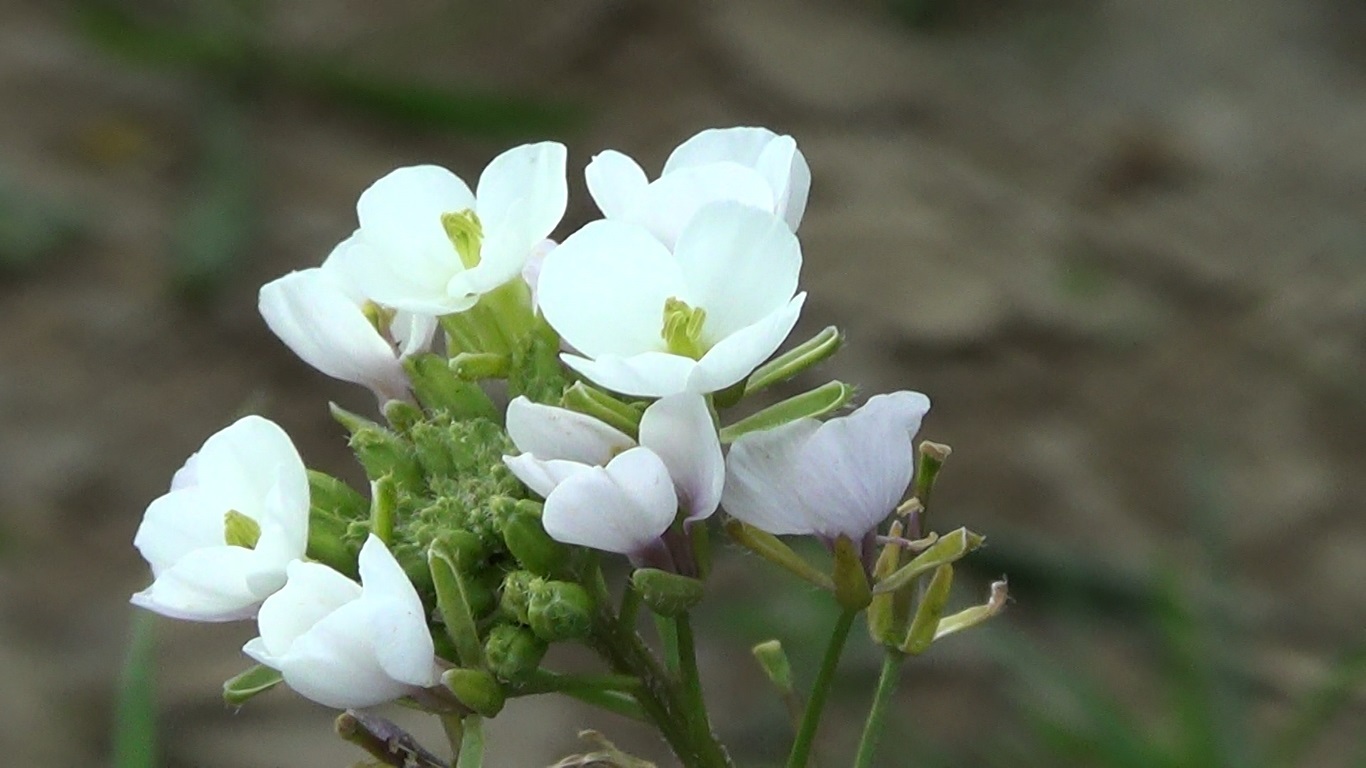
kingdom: Plantae
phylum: Tracheophyta
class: Magnoliopsida
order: Brassicales
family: Brassicaceae
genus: Diplotaxis
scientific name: Diplotaxis erucoides
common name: White rocket
